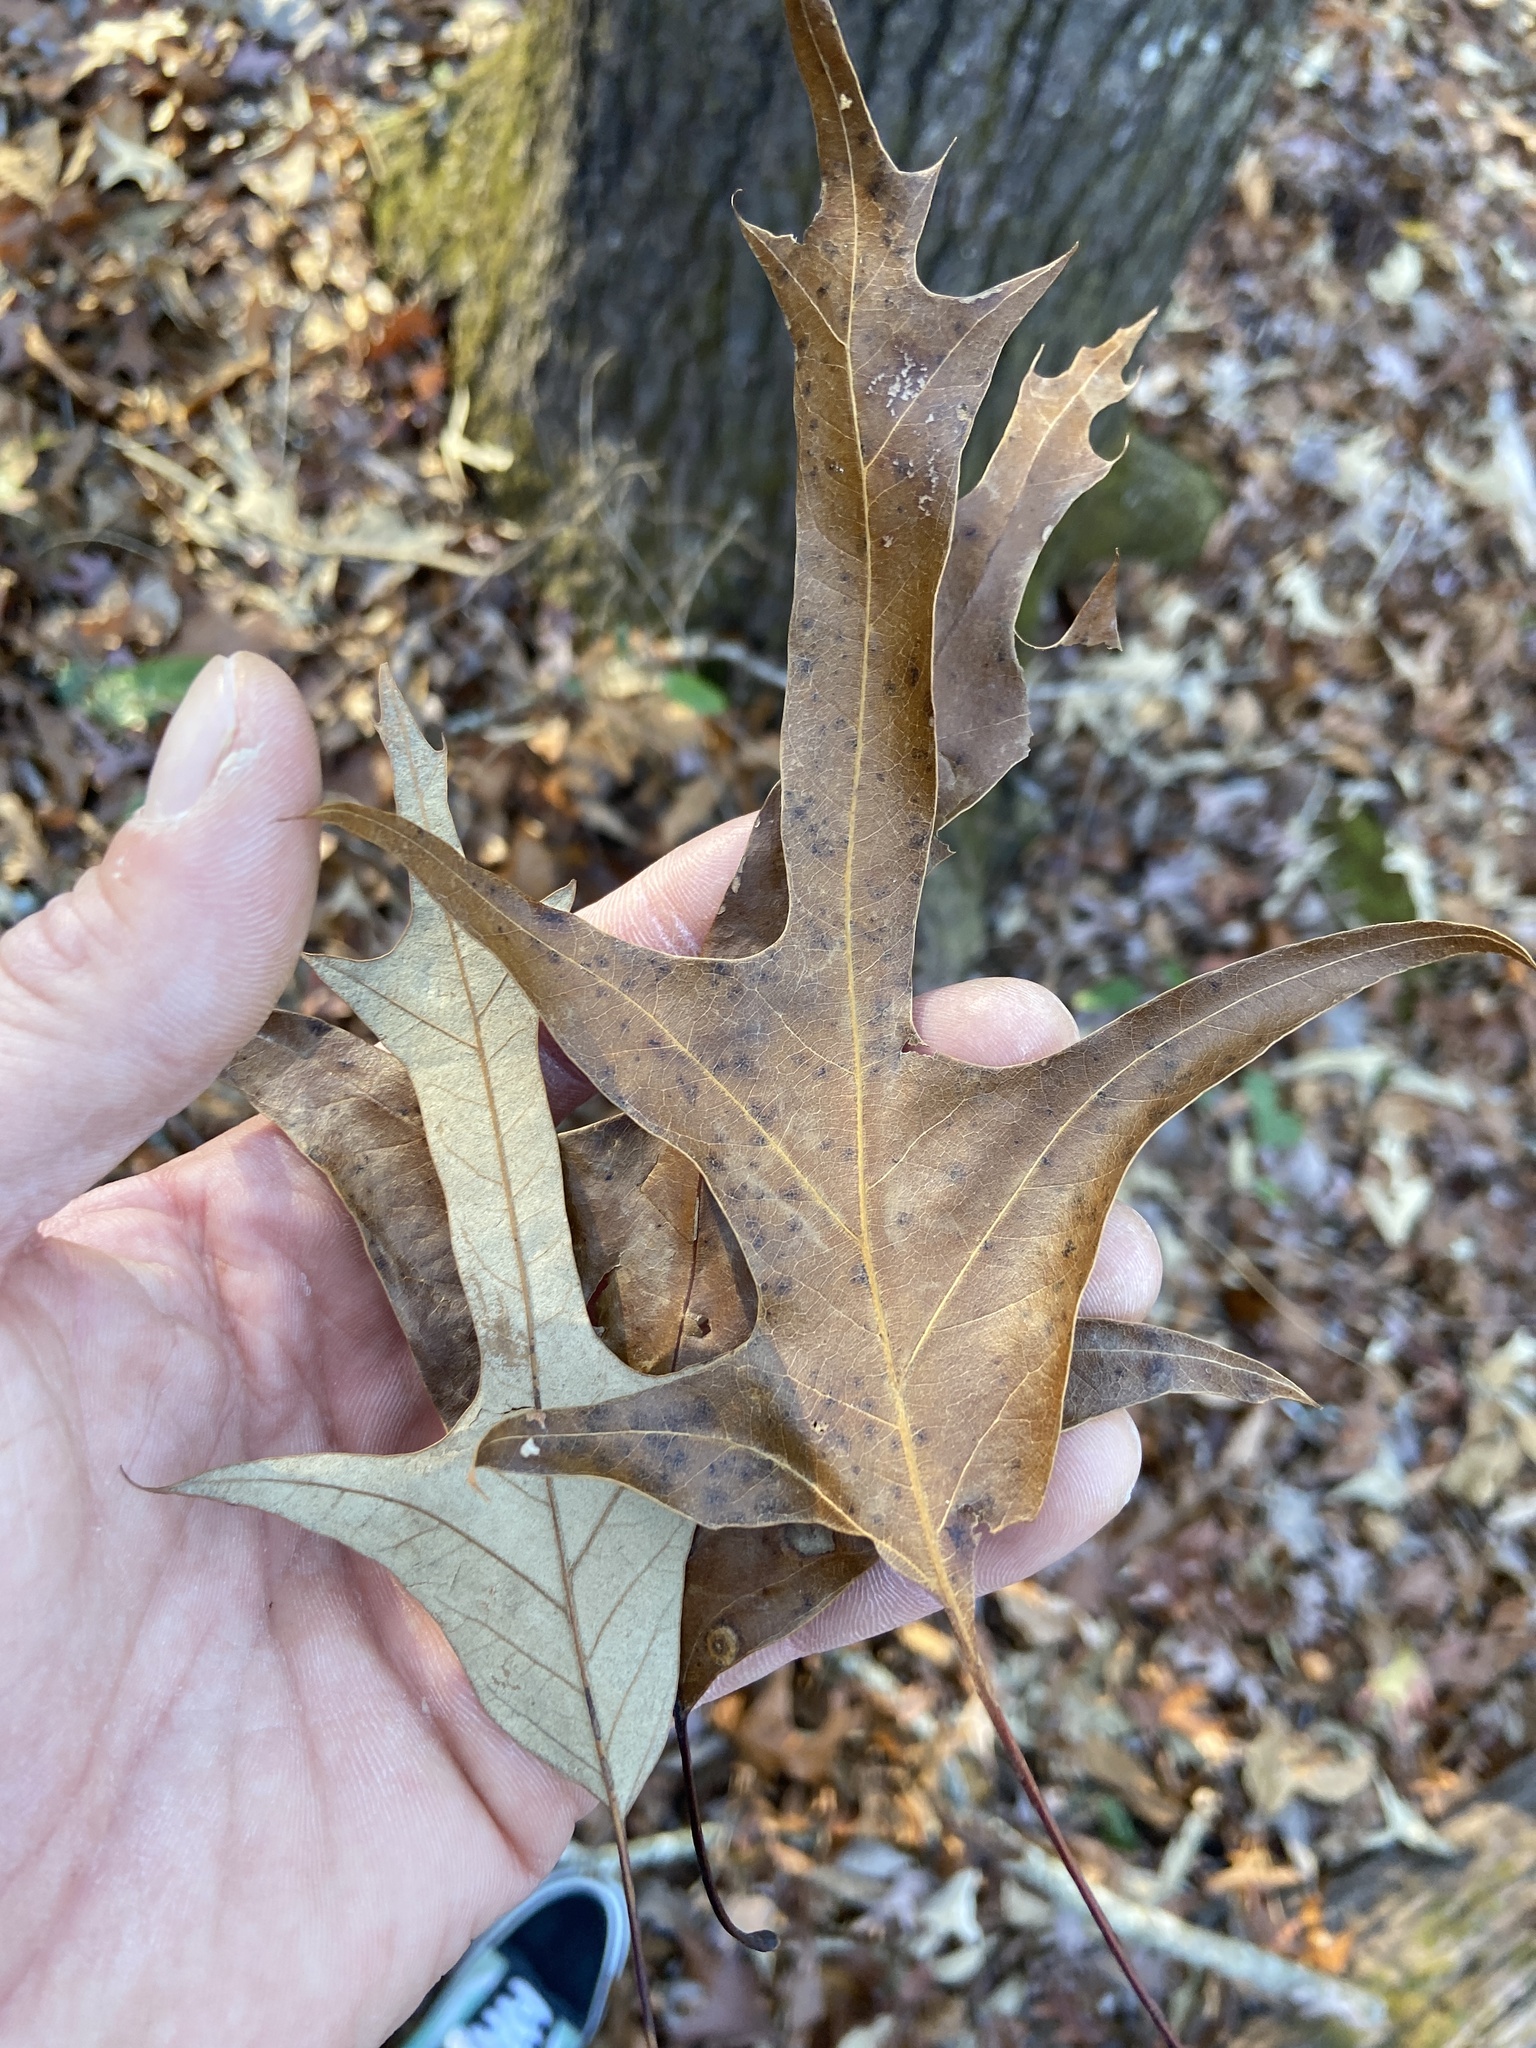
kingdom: Plantae
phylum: Tracheophyta
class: Magnoliopsida
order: Fagales
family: Fagaceae
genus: Quercus
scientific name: Quercus falcata
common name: Southern red oak
